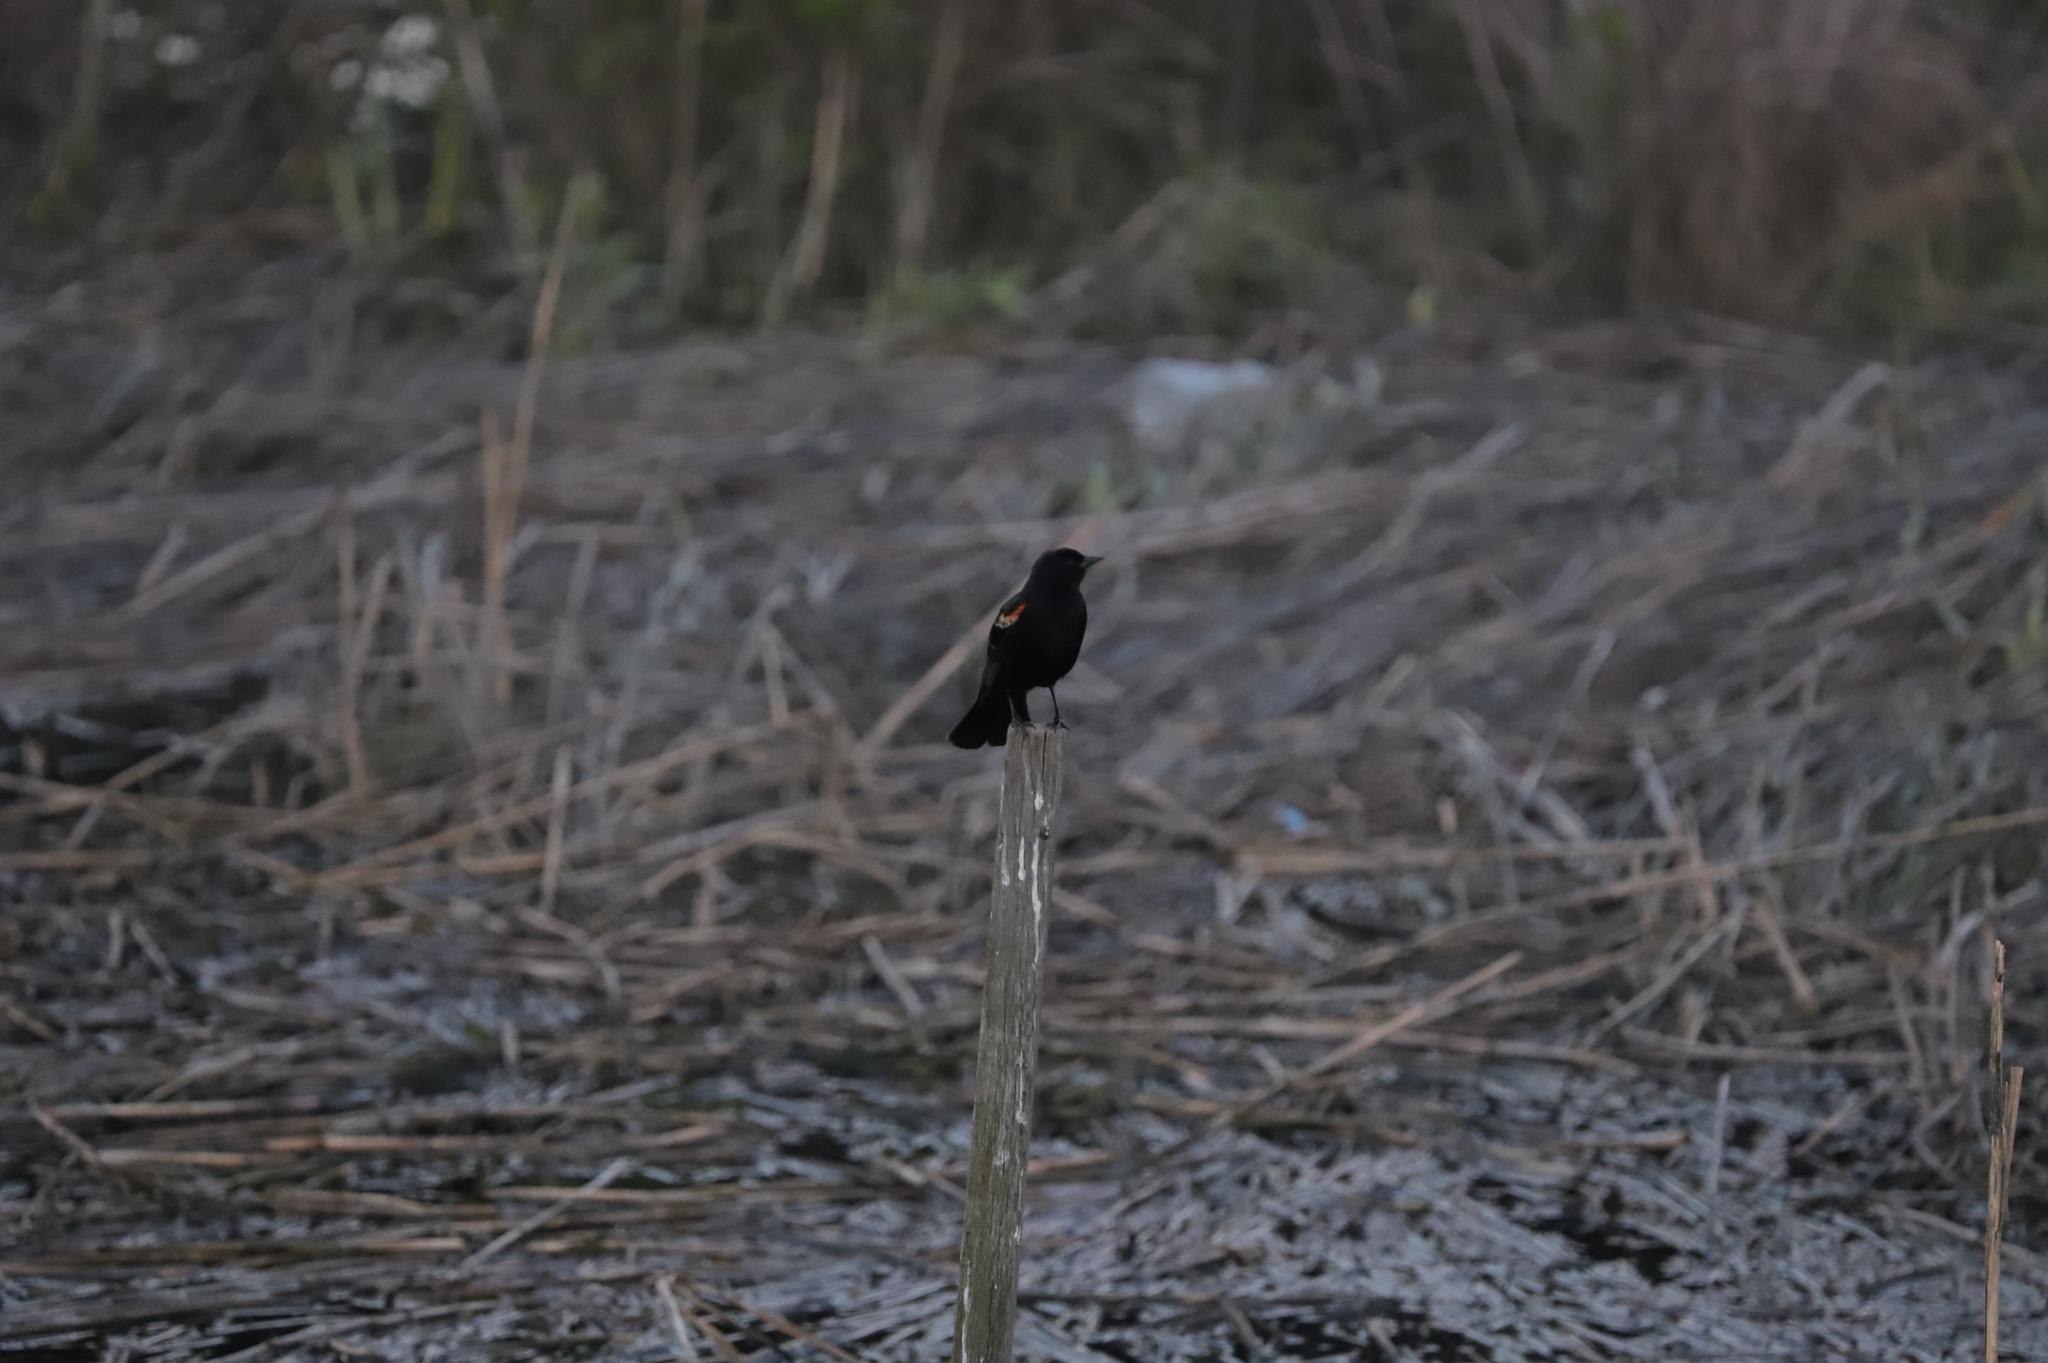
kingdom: Animalia
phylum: Chordata
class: Aves
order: Passeriformes
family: Icteridae
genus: Agelaius
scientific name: Agelaius phoeniceus
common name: Red-winged blackbird
